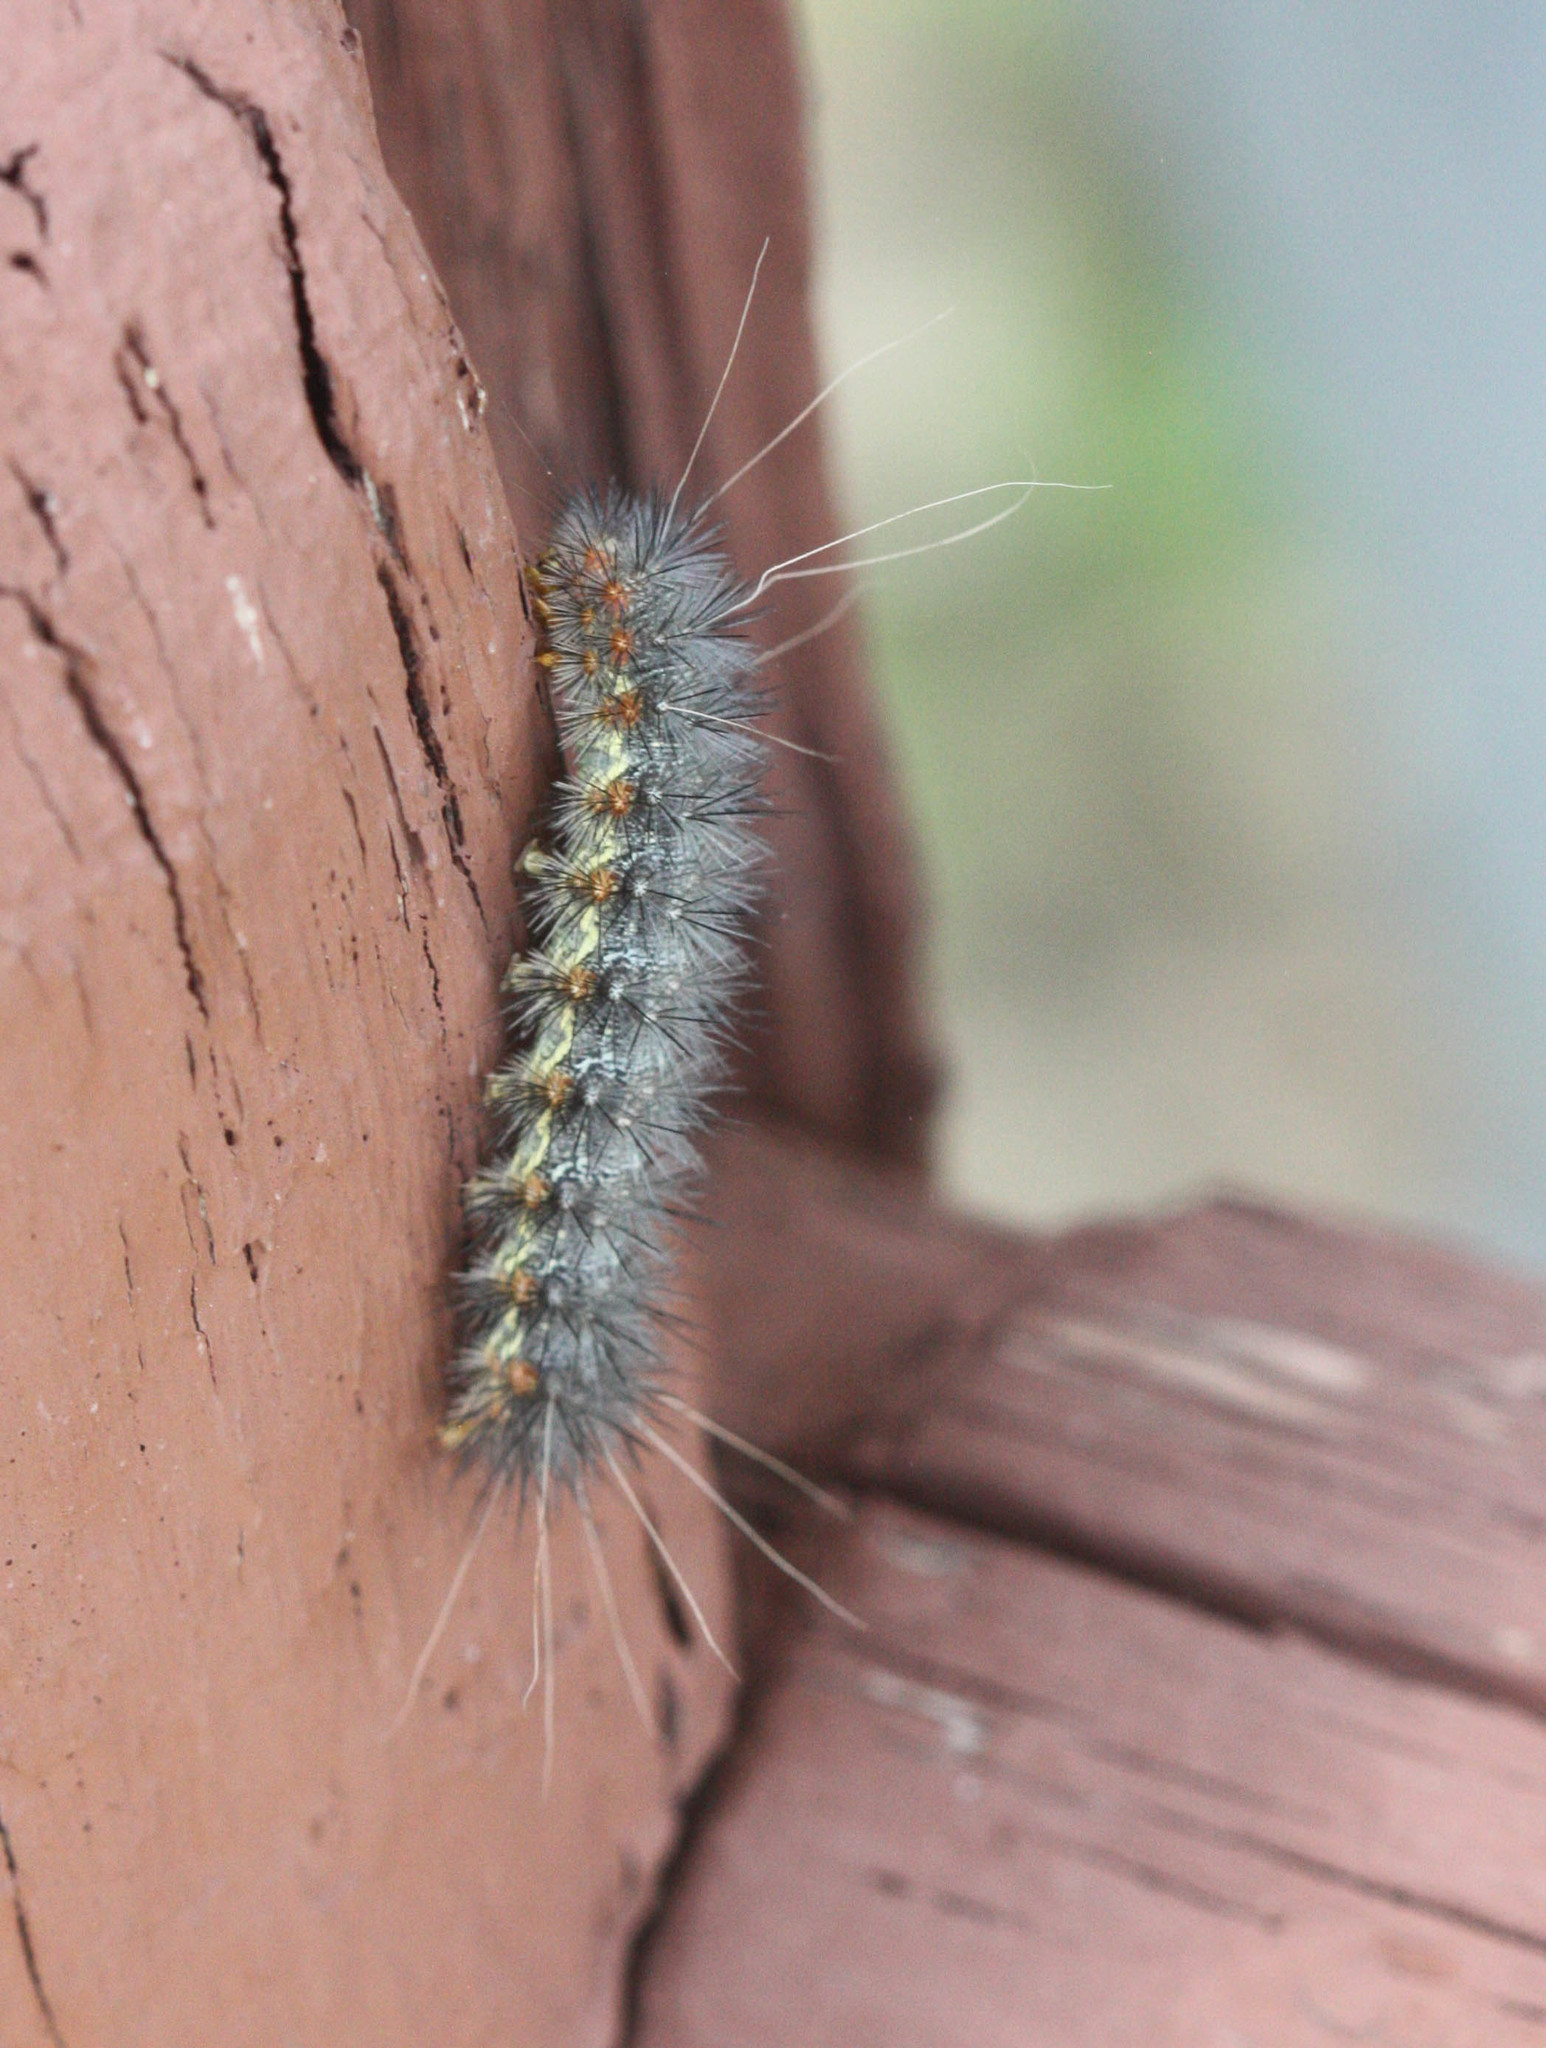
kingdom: Animalia
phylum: Arthropoda
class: Insecta
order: Lepidoptera
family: Erebidae
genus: Hypercompe
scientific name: Hypercompe suffusa
